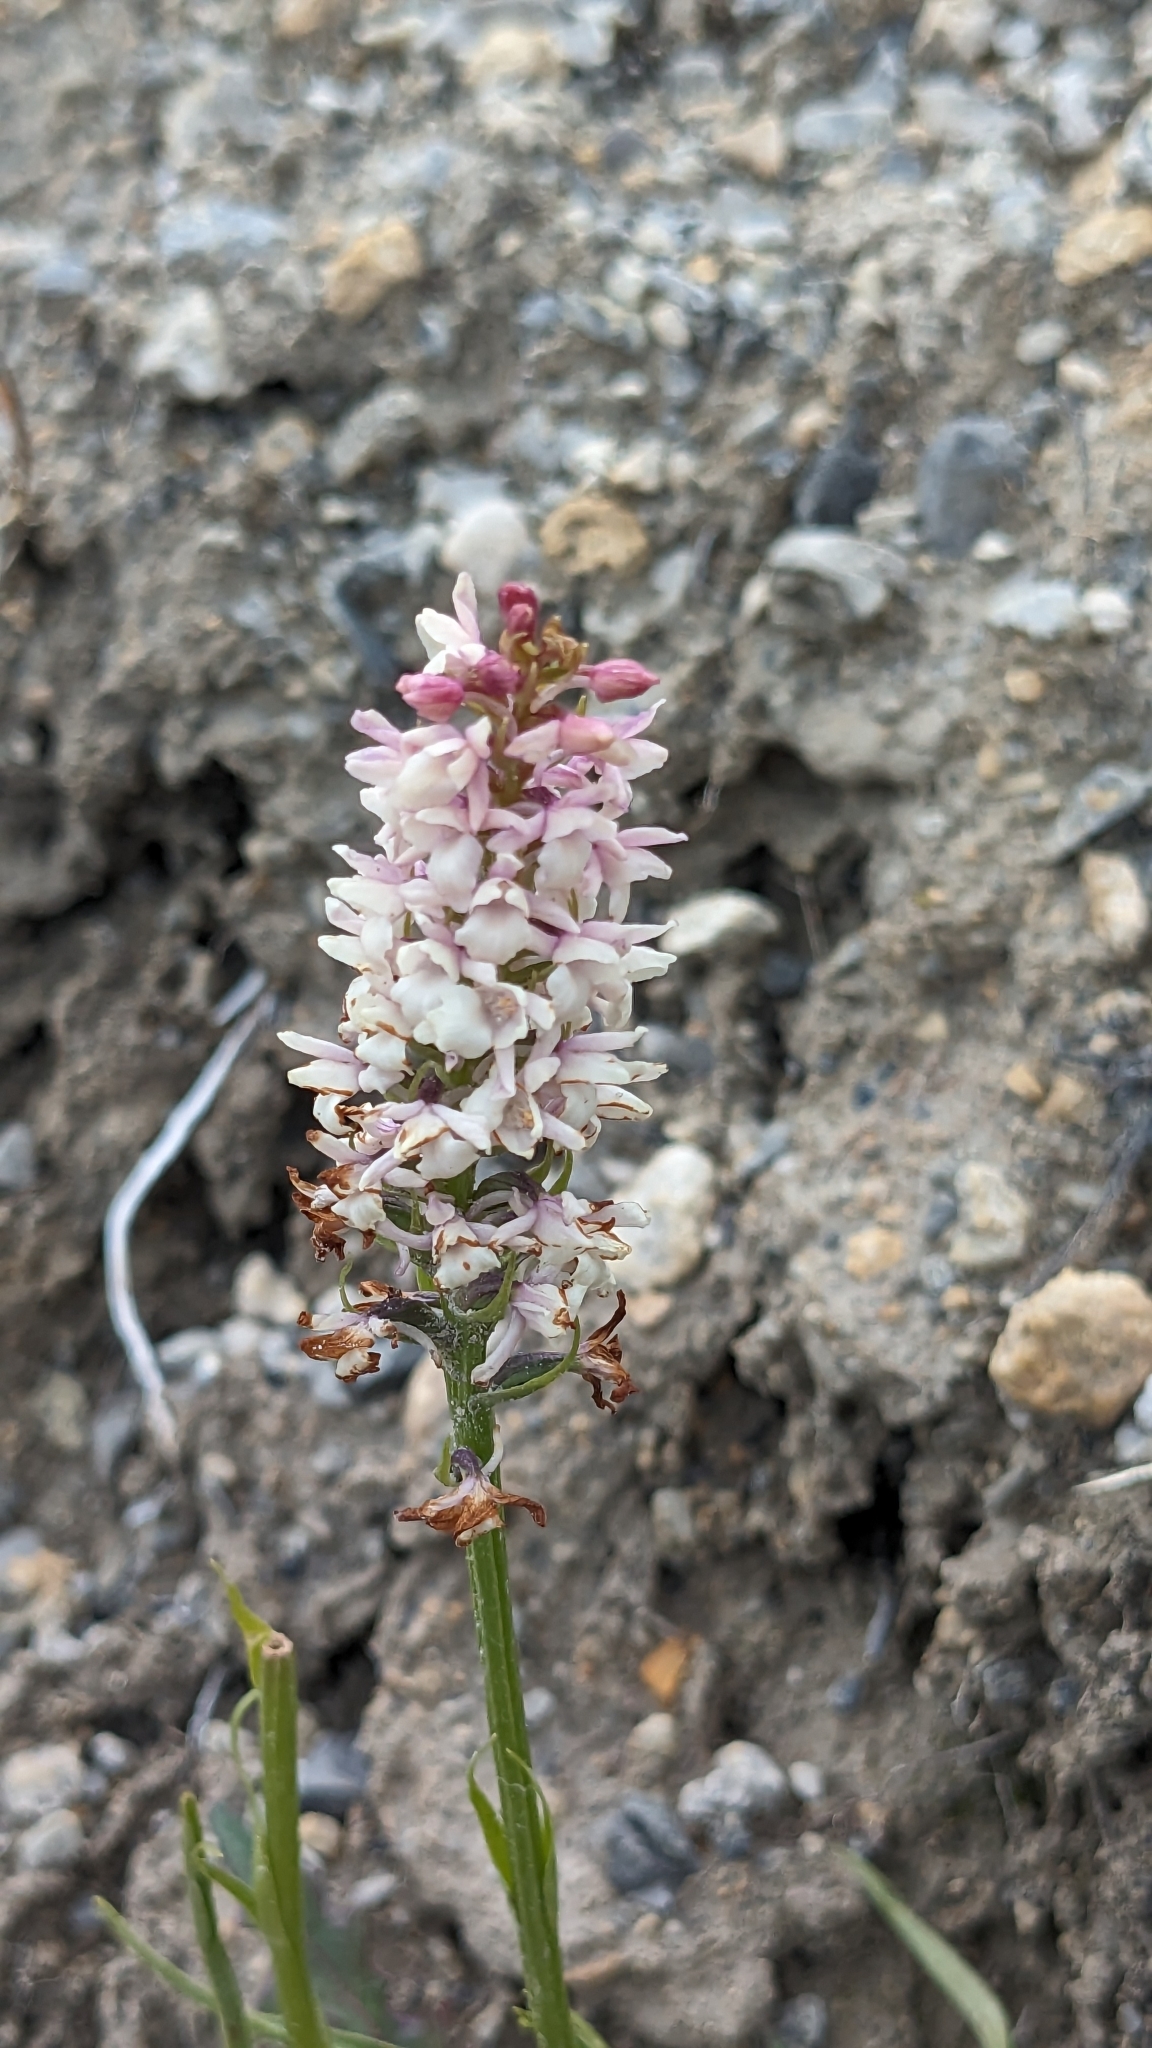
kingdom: Plantae
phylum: Tracheophyta
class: Liliopsida
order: Asparagales
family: Orchidaceae
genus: Gymnadenia
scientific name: Gymnadenia odoratissima
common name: Scented gymnadenia
